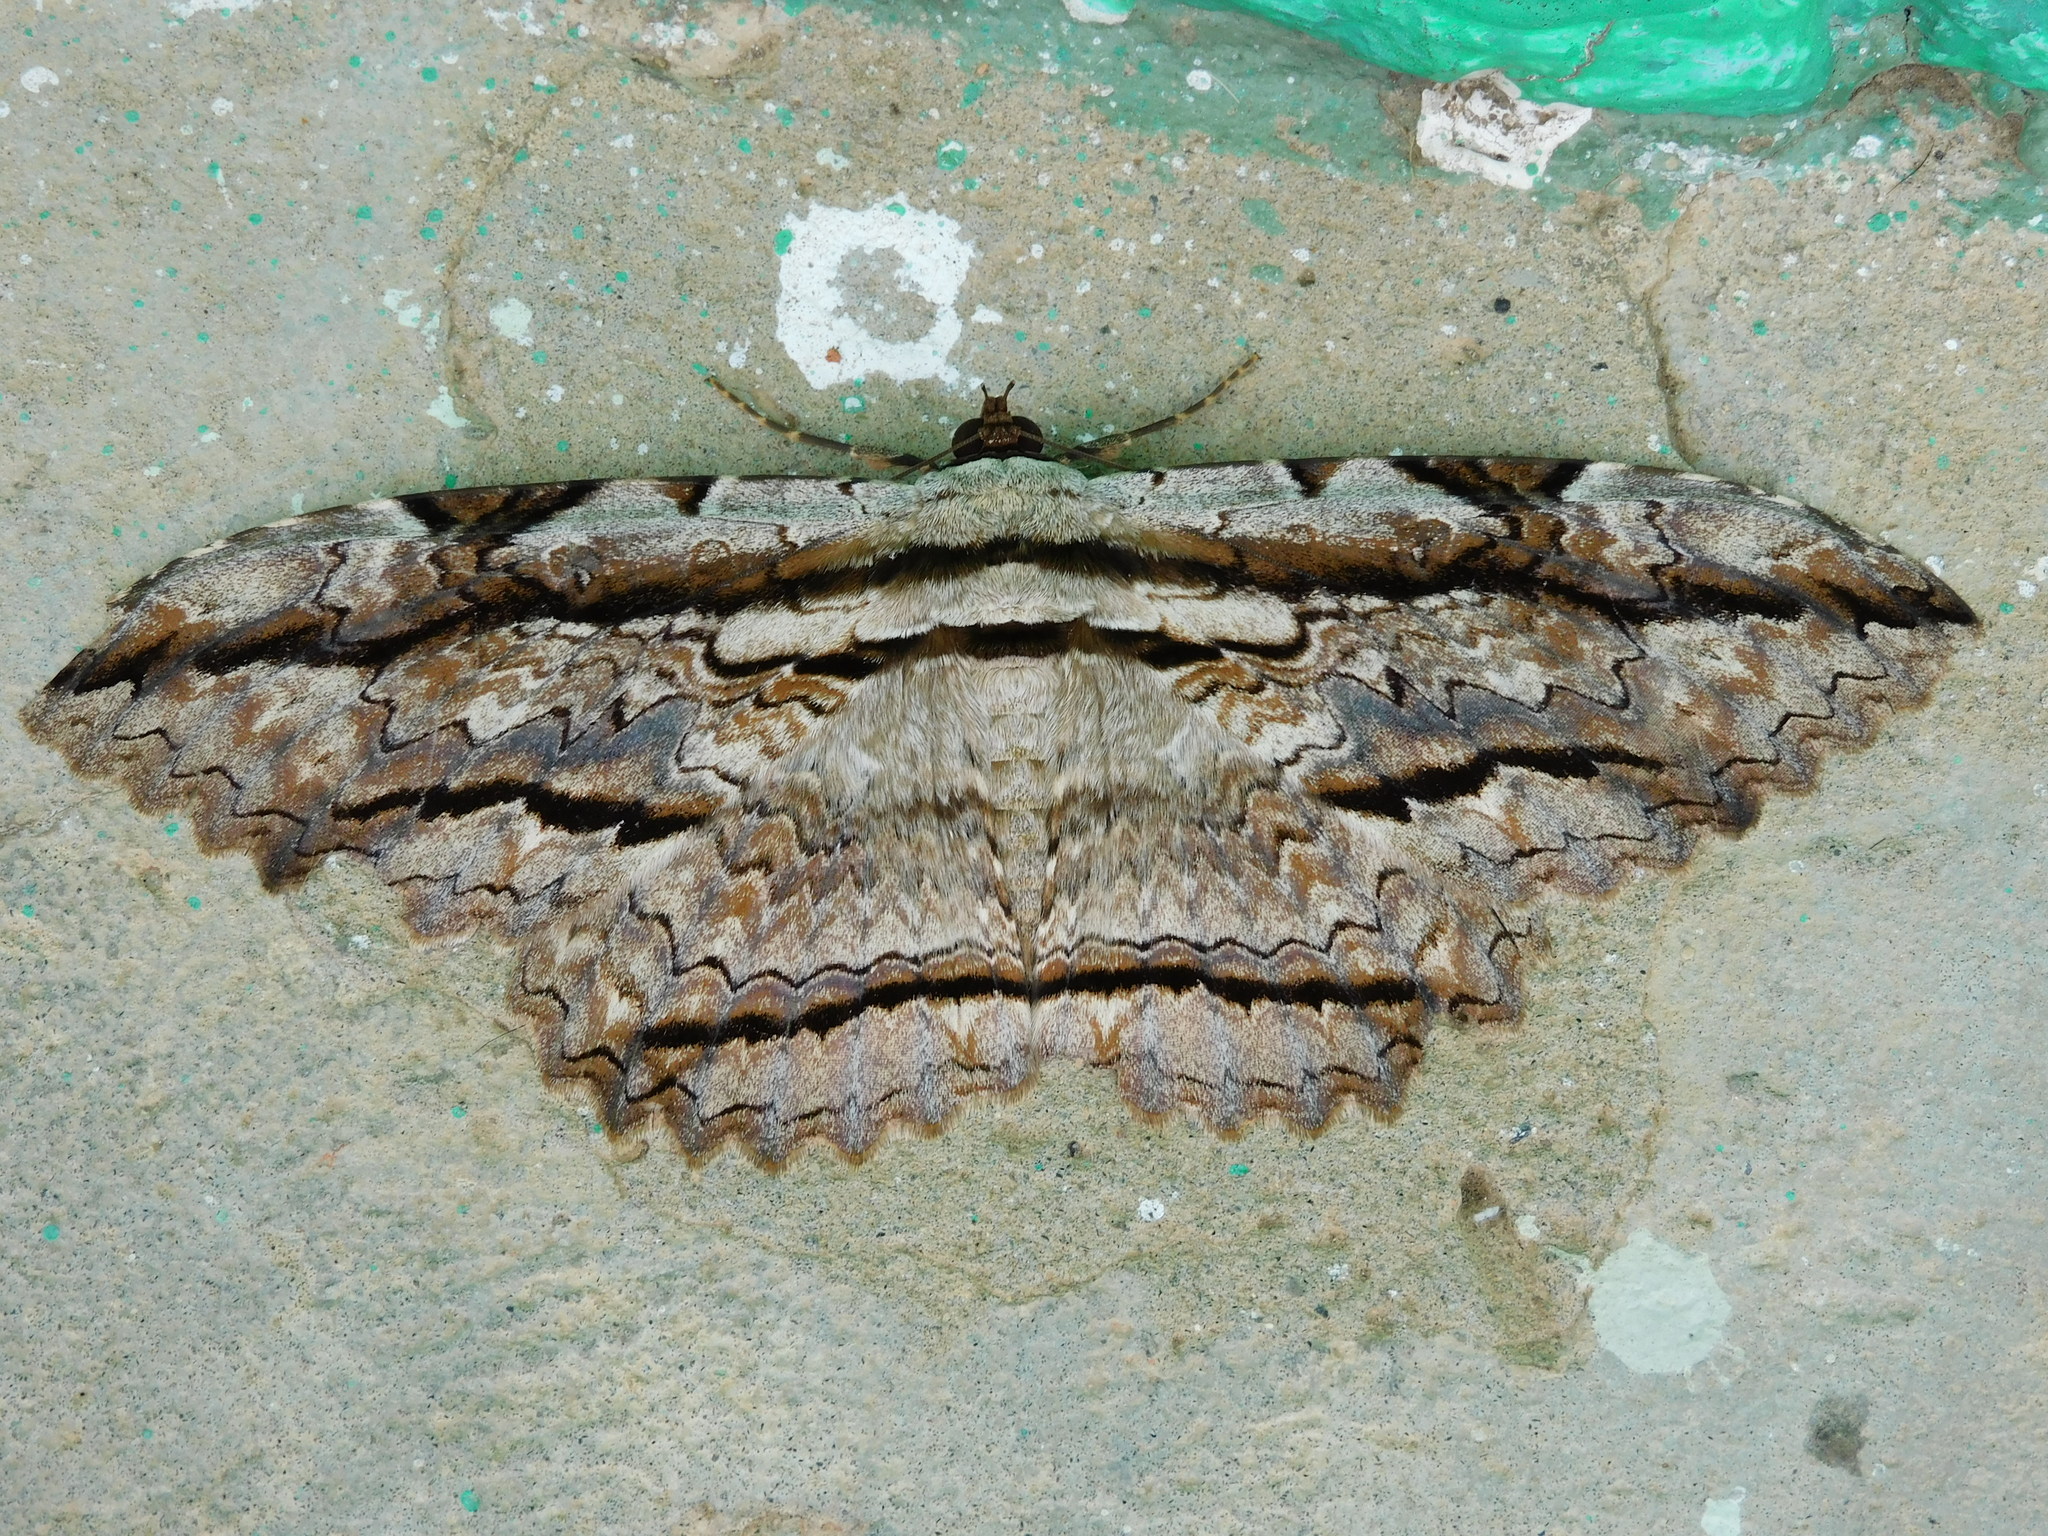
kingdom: Animalia
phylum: Arthropoda
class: Insecta
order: Lepidoptera
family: Erebidae
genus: Thysania
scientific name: Thysania zenobia
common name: Owl moth
